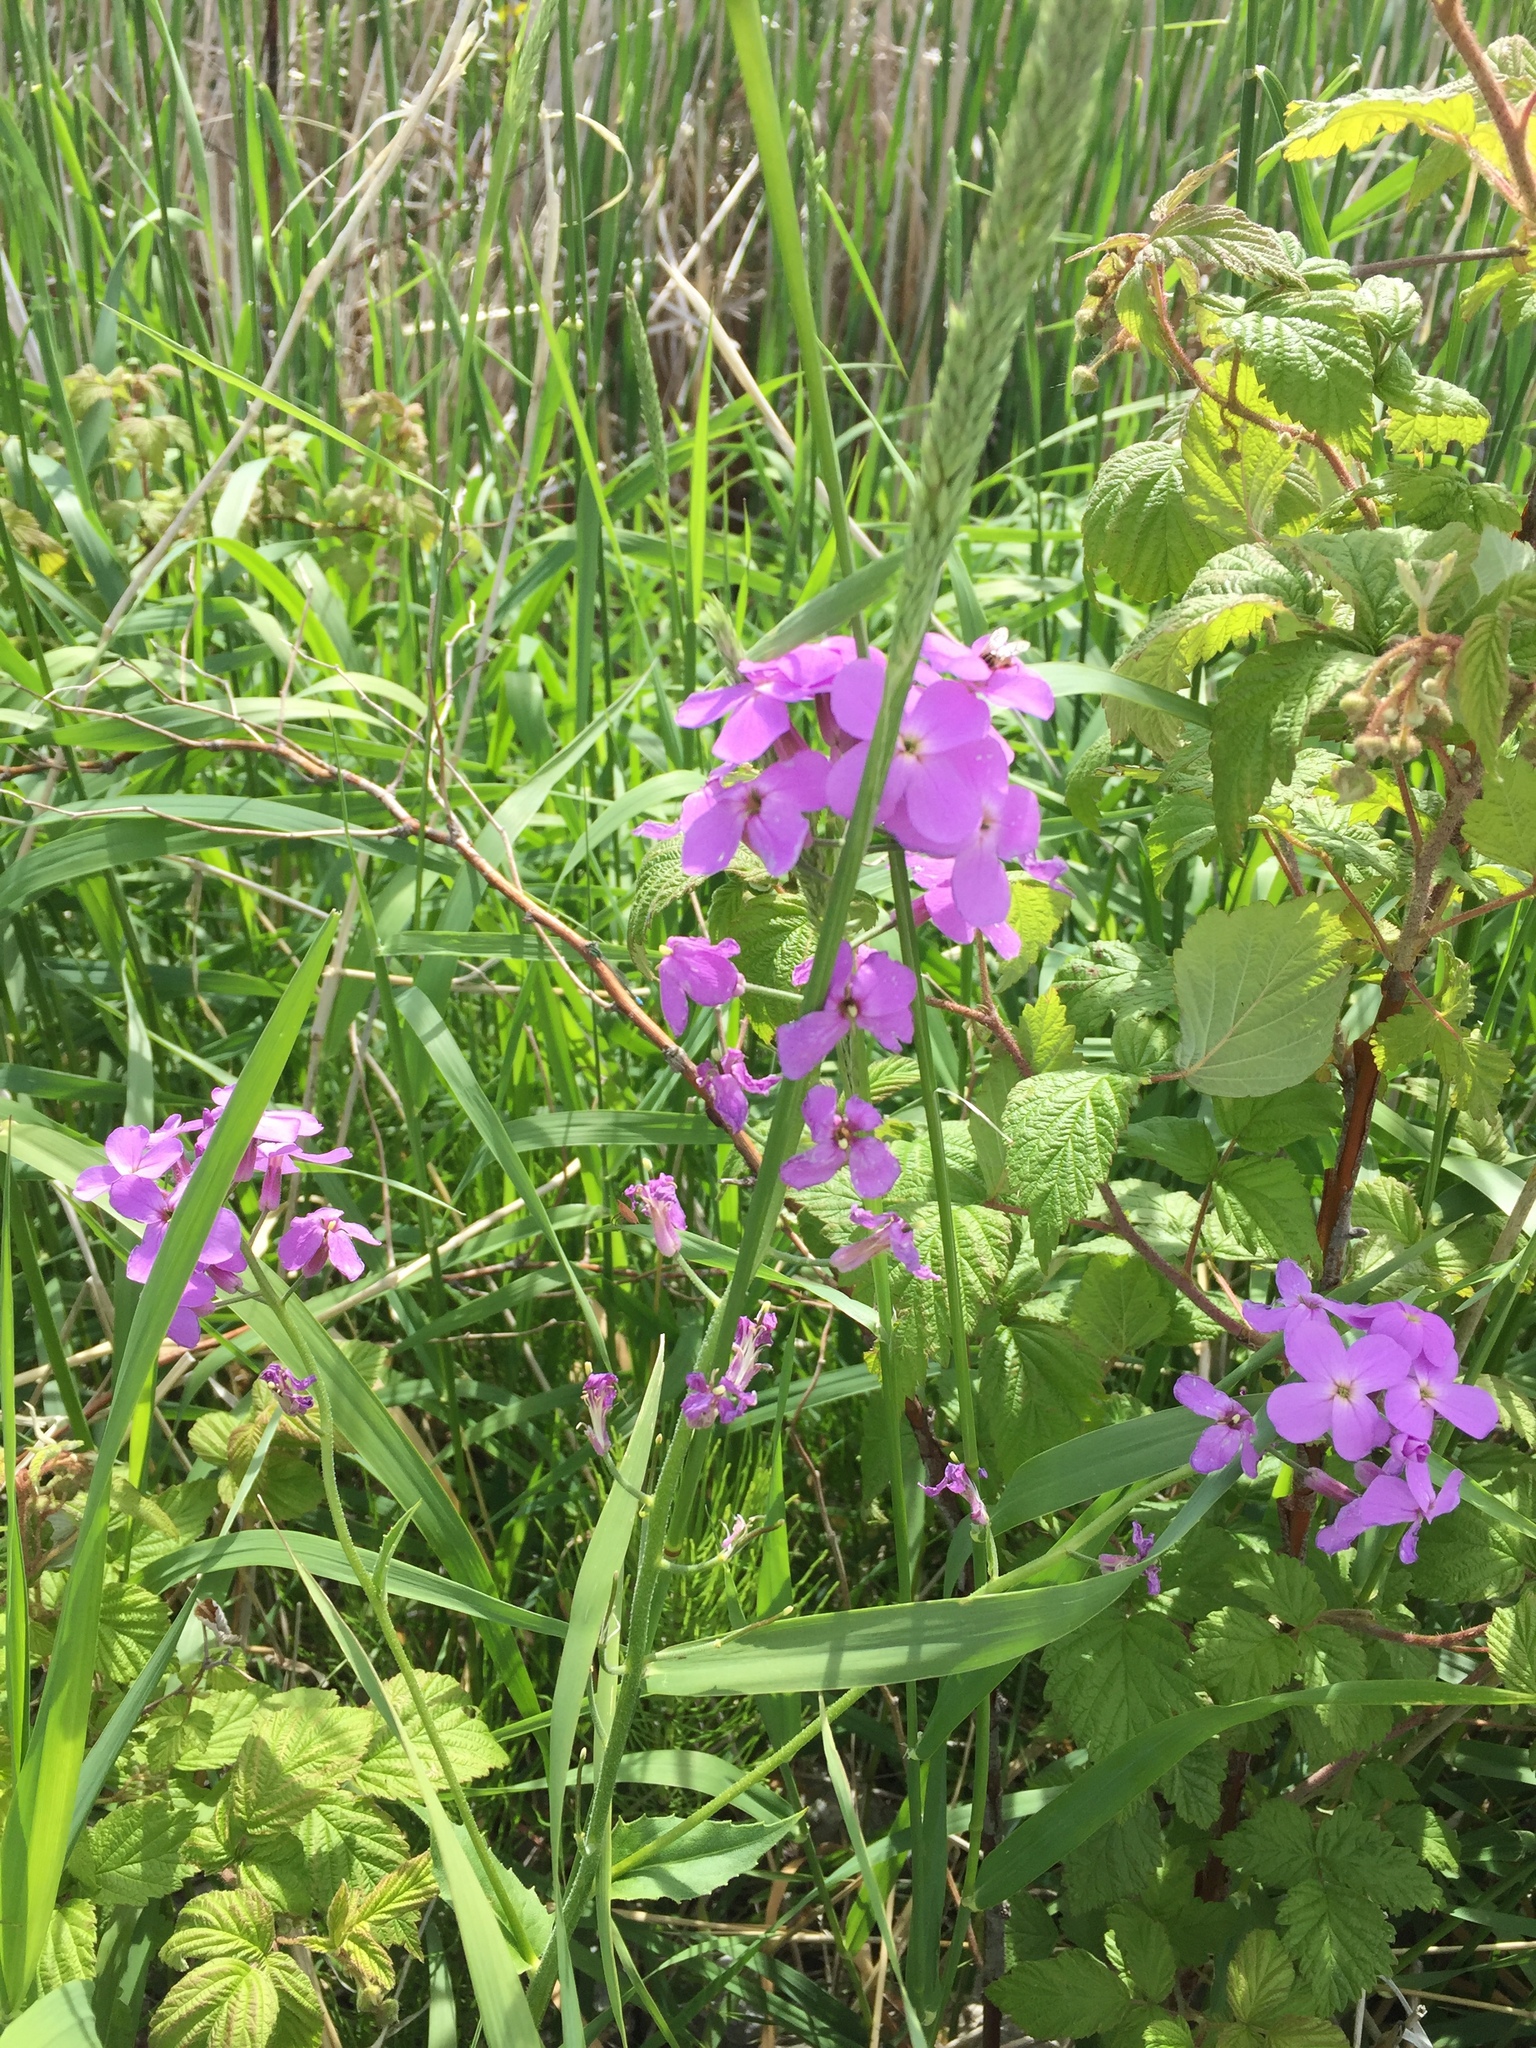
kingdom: Plantae
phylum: Tracheophyta
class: Magnoliopsida
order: Brassicales
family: Brassicaceae
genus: Hesperis
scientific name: Hesperis matronalis
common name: Dame's-violet
